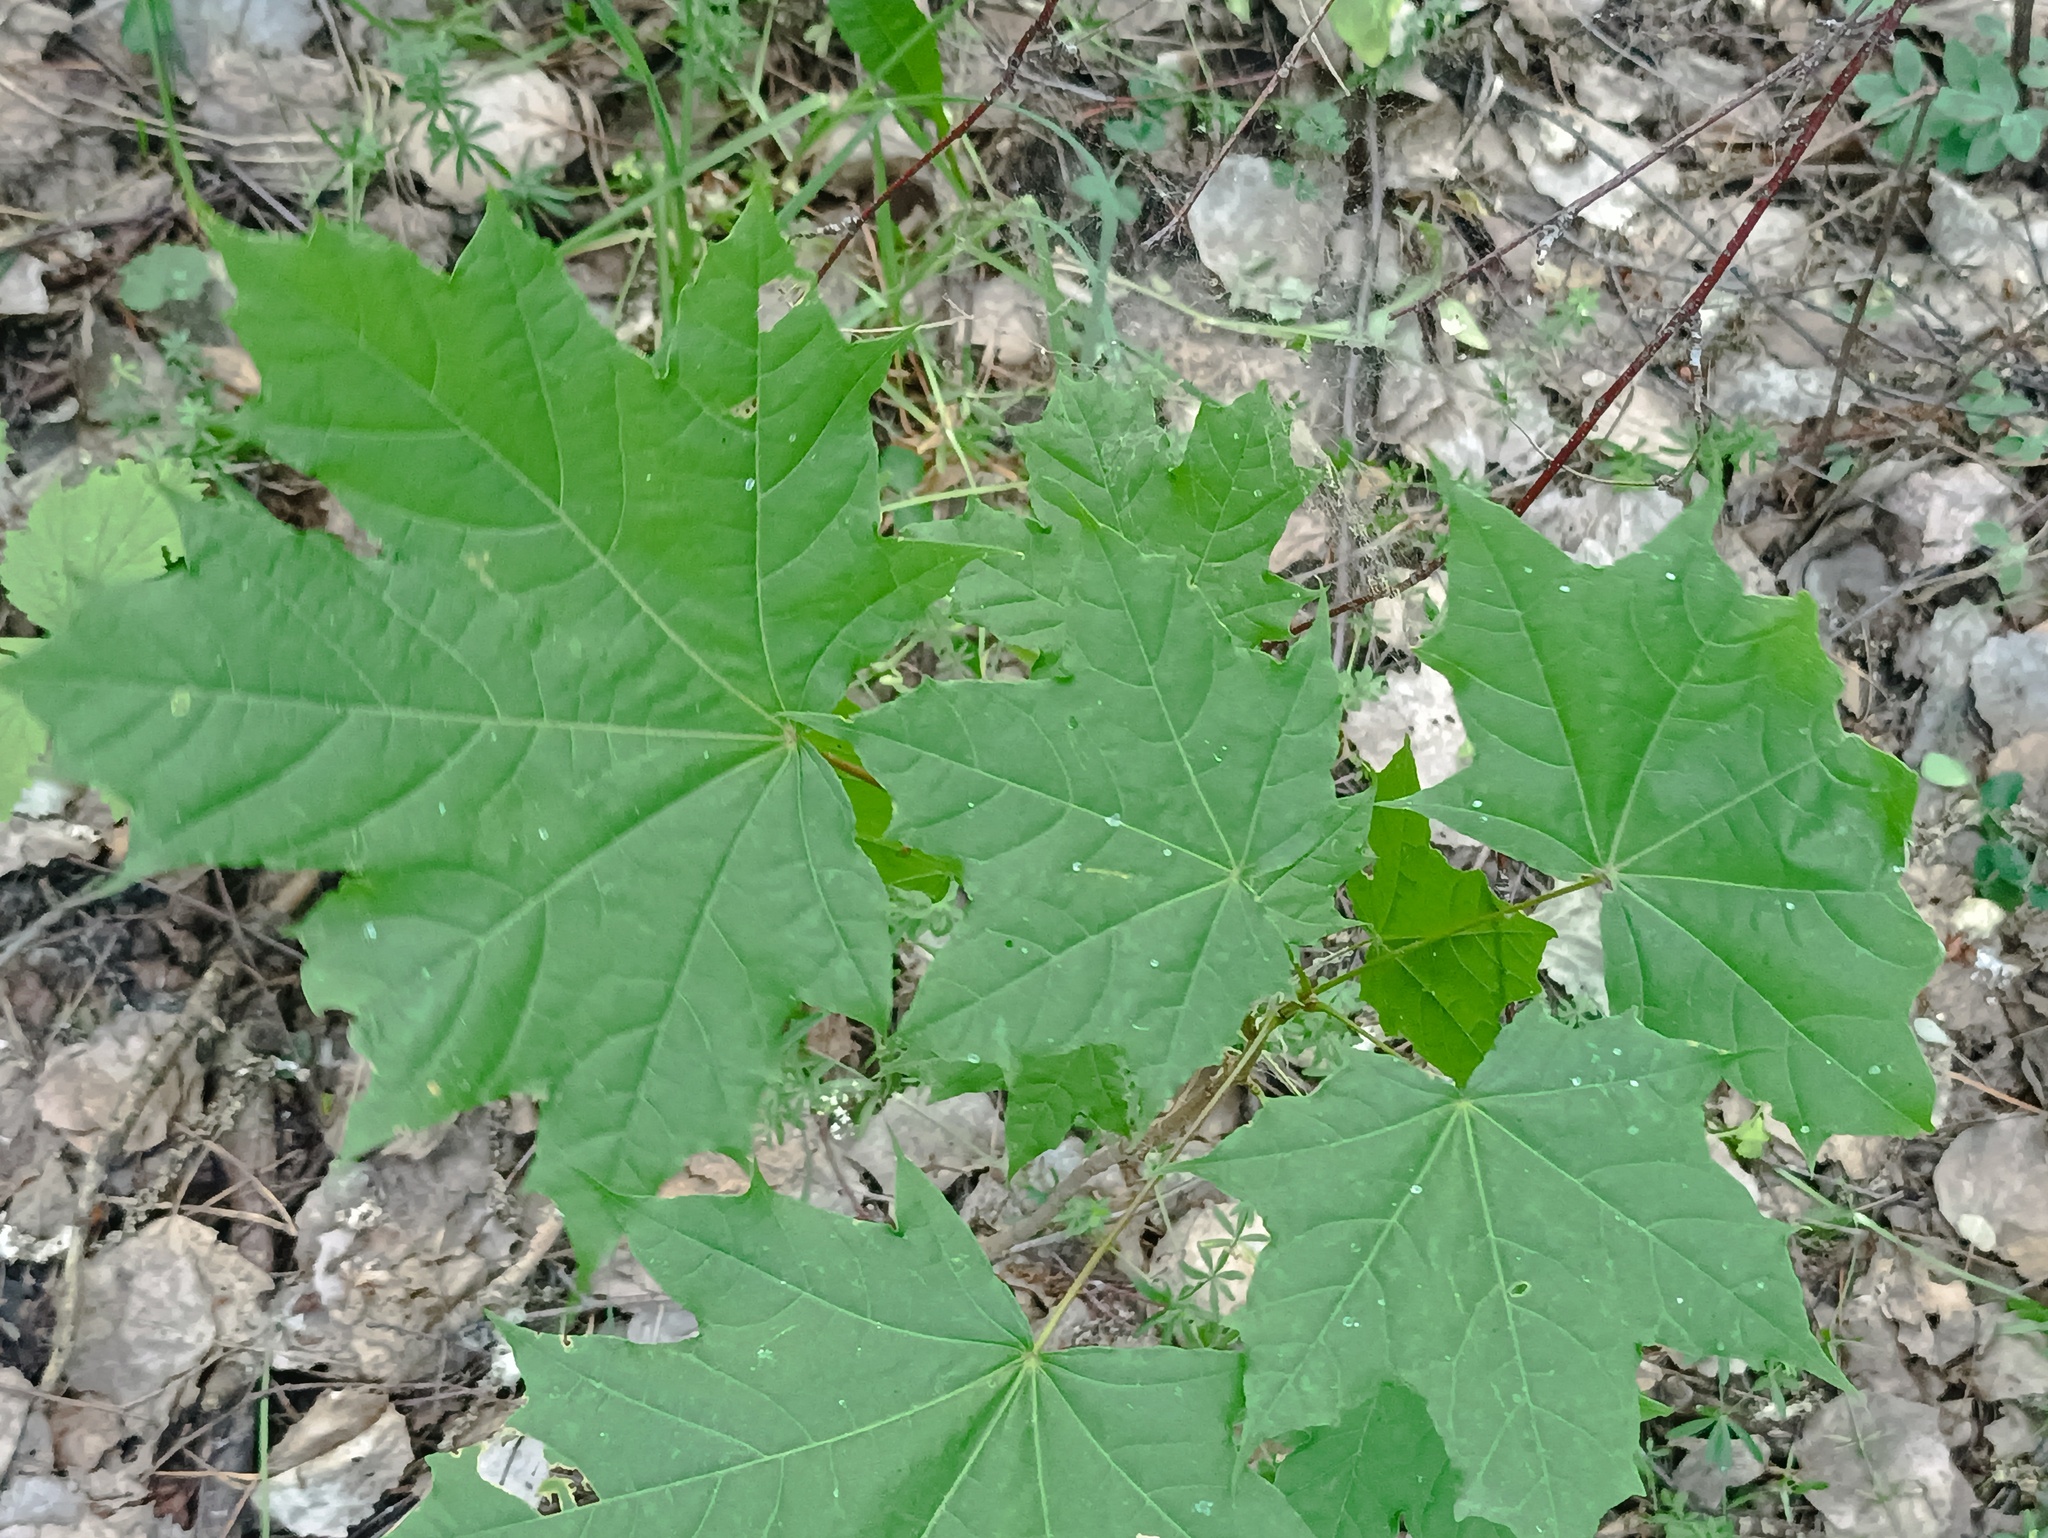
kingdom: Plantae
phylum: Tracheophyta
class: Magnoliopsida
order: Sapindales
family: Sapindaceae
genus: Acer
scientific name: Acer platanoides
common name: Norway maple
